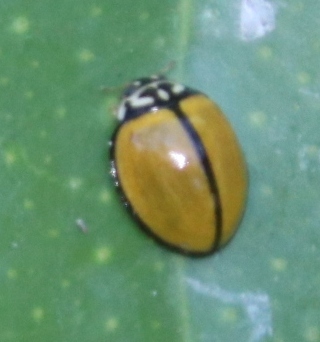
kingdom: Animalia
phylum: Arthropoda
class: Insecta
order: Coleoptera
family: Coccinellidae
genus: Oenopia
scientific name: Oenopia
